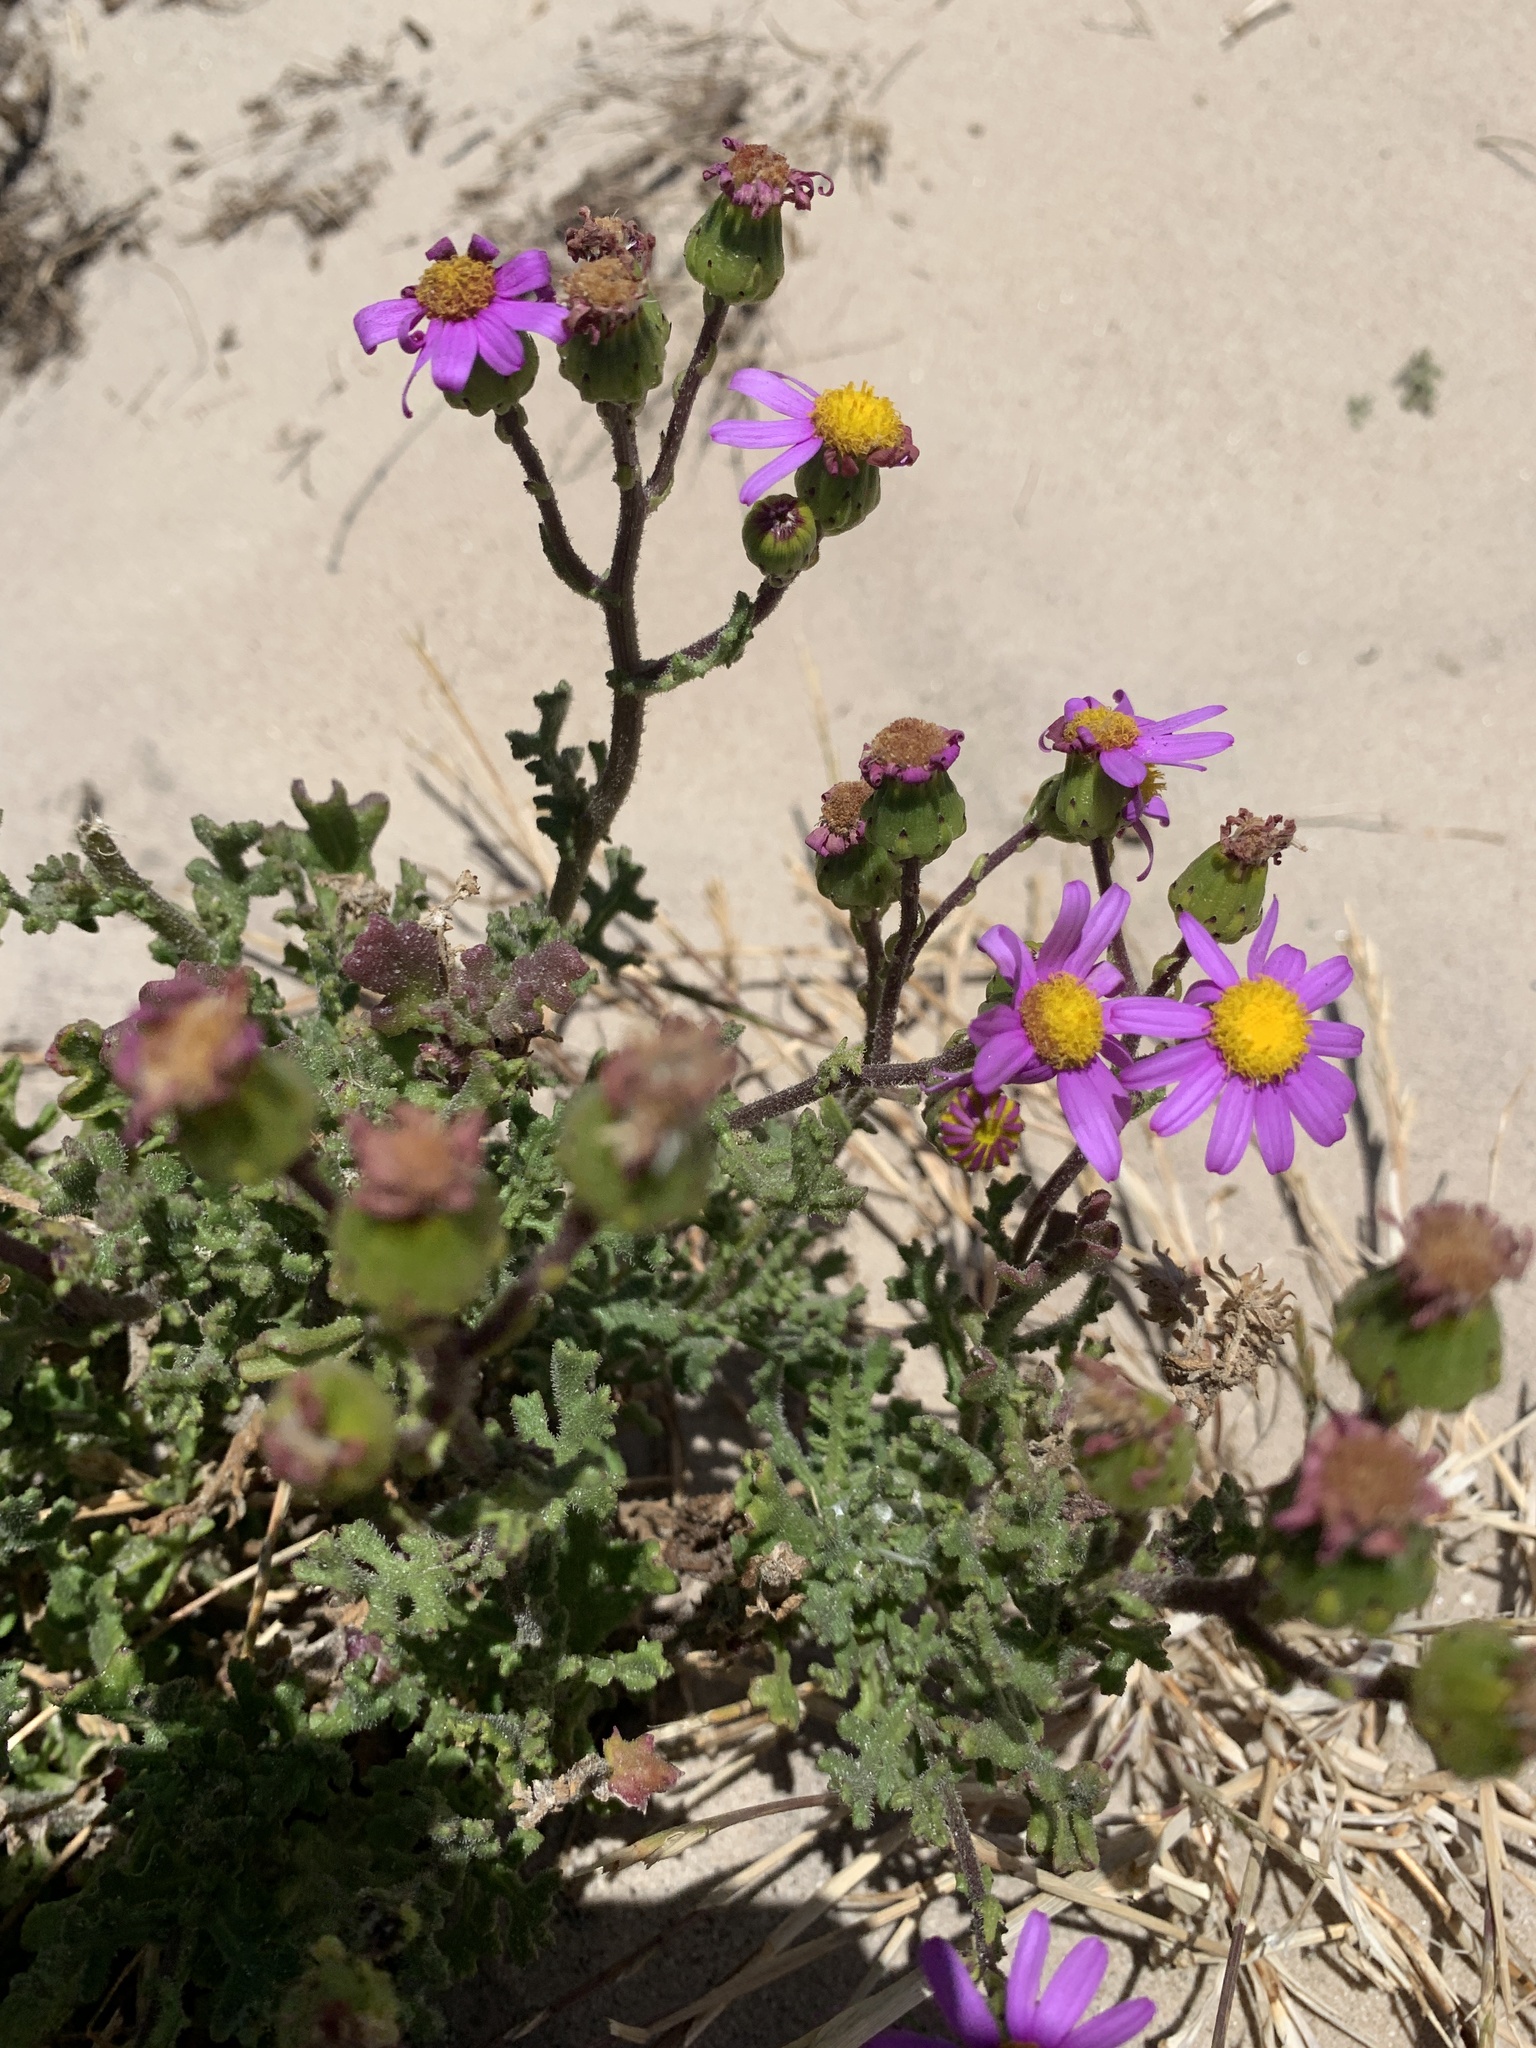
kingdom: Plantae
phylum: Tracheophyta
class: Magnoliopsida
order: Asterales
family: Asteraceae
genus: Senecio
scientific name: Senecio elegans
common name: Purple groundsel
